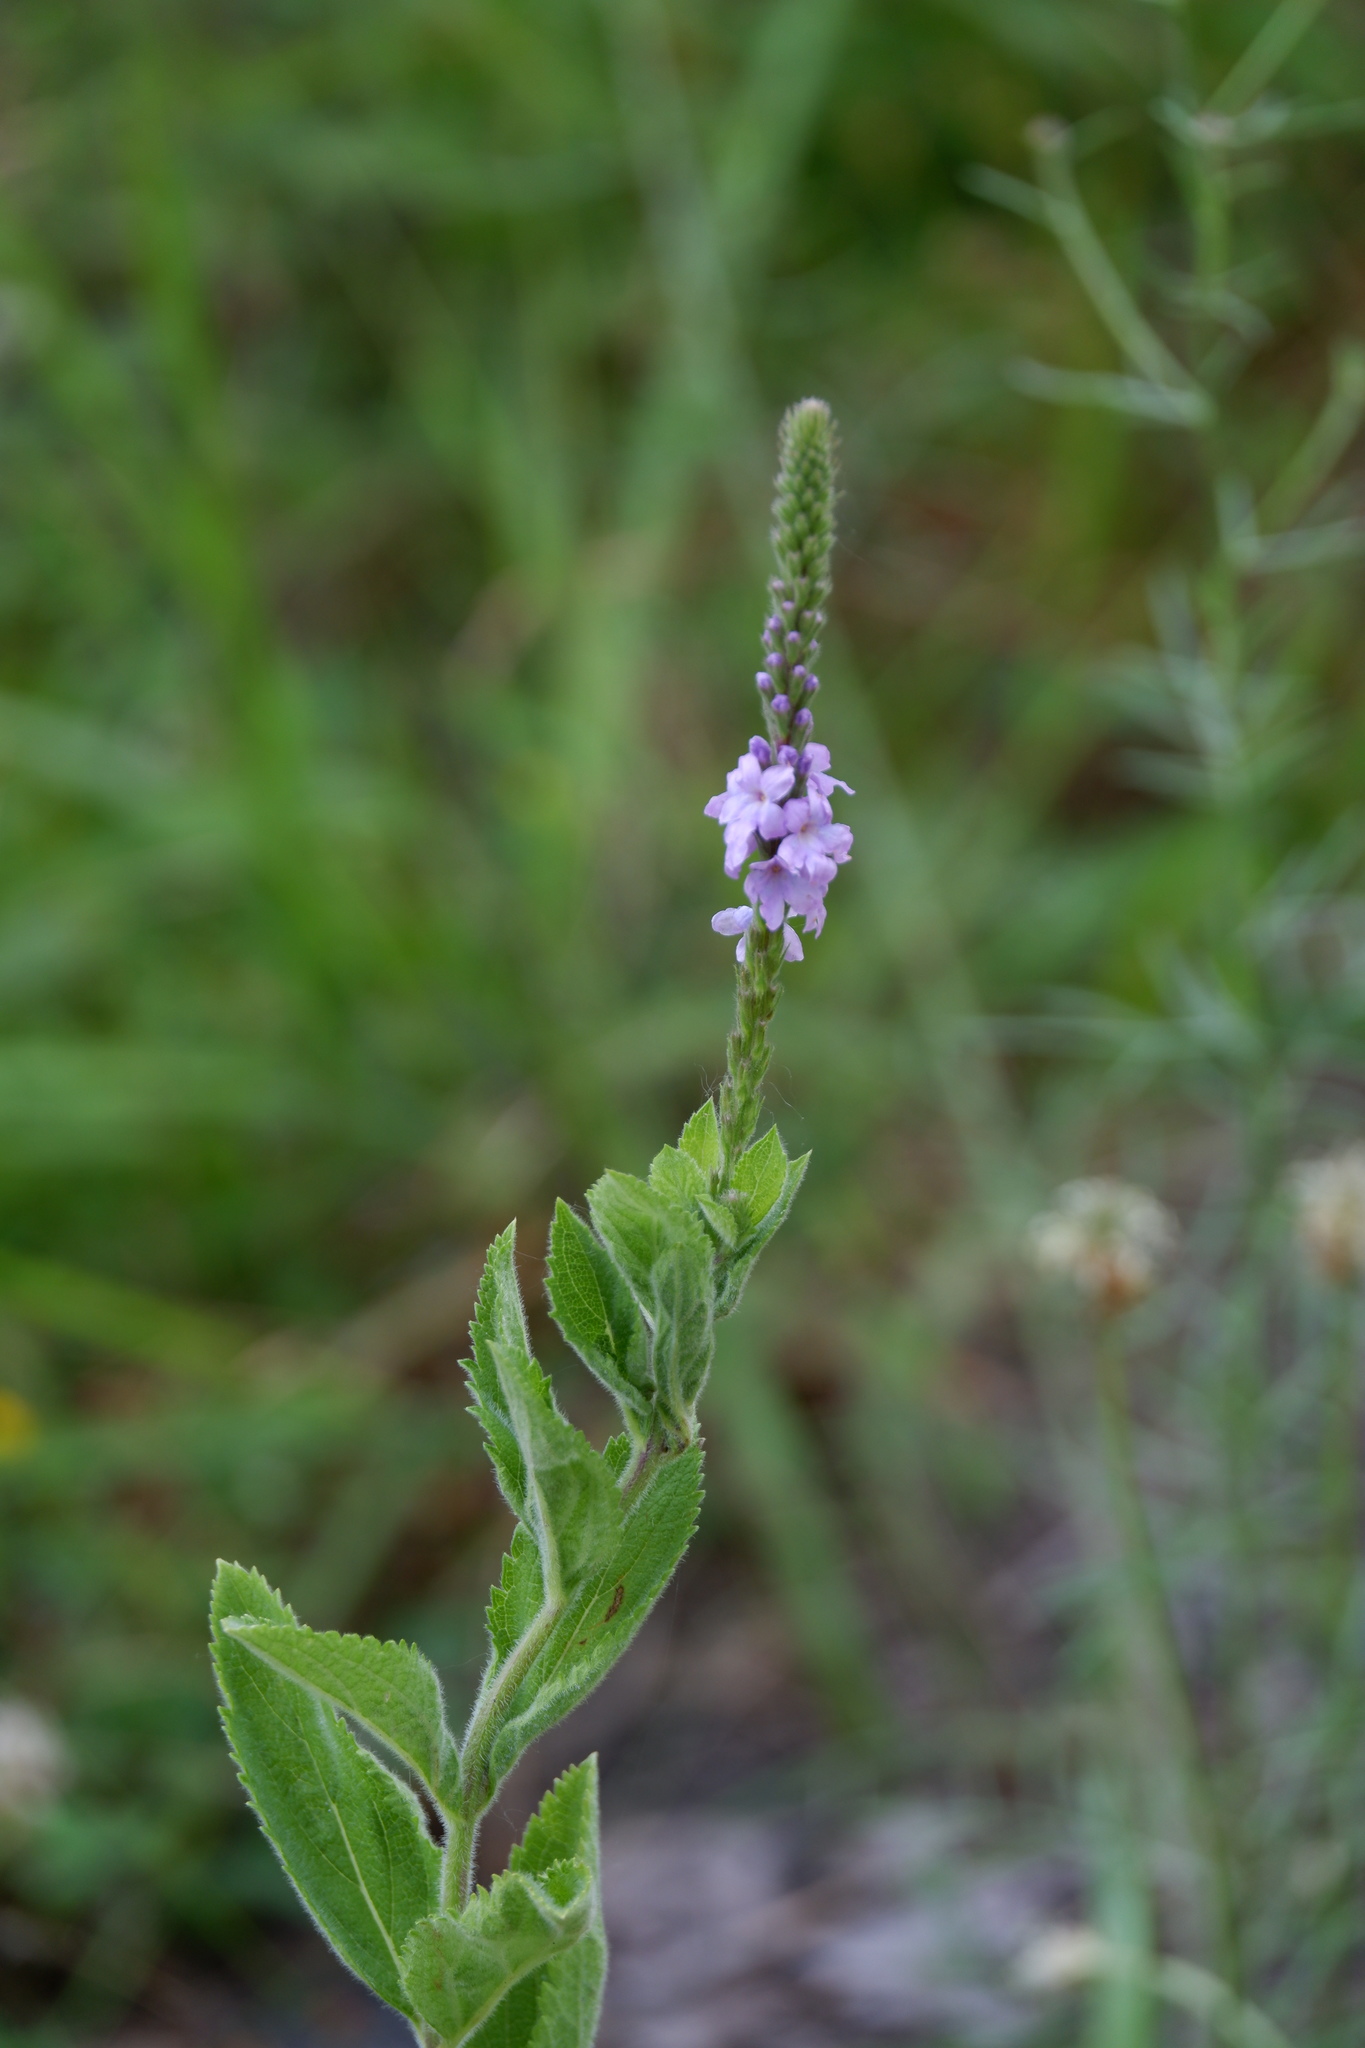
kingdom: Plantae
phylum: Tracheophyta
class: Magnoliopsida
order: Lamiales
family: Verbenaceae
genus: Verbena
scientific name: Verbena stricta
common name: Hoary vervain
